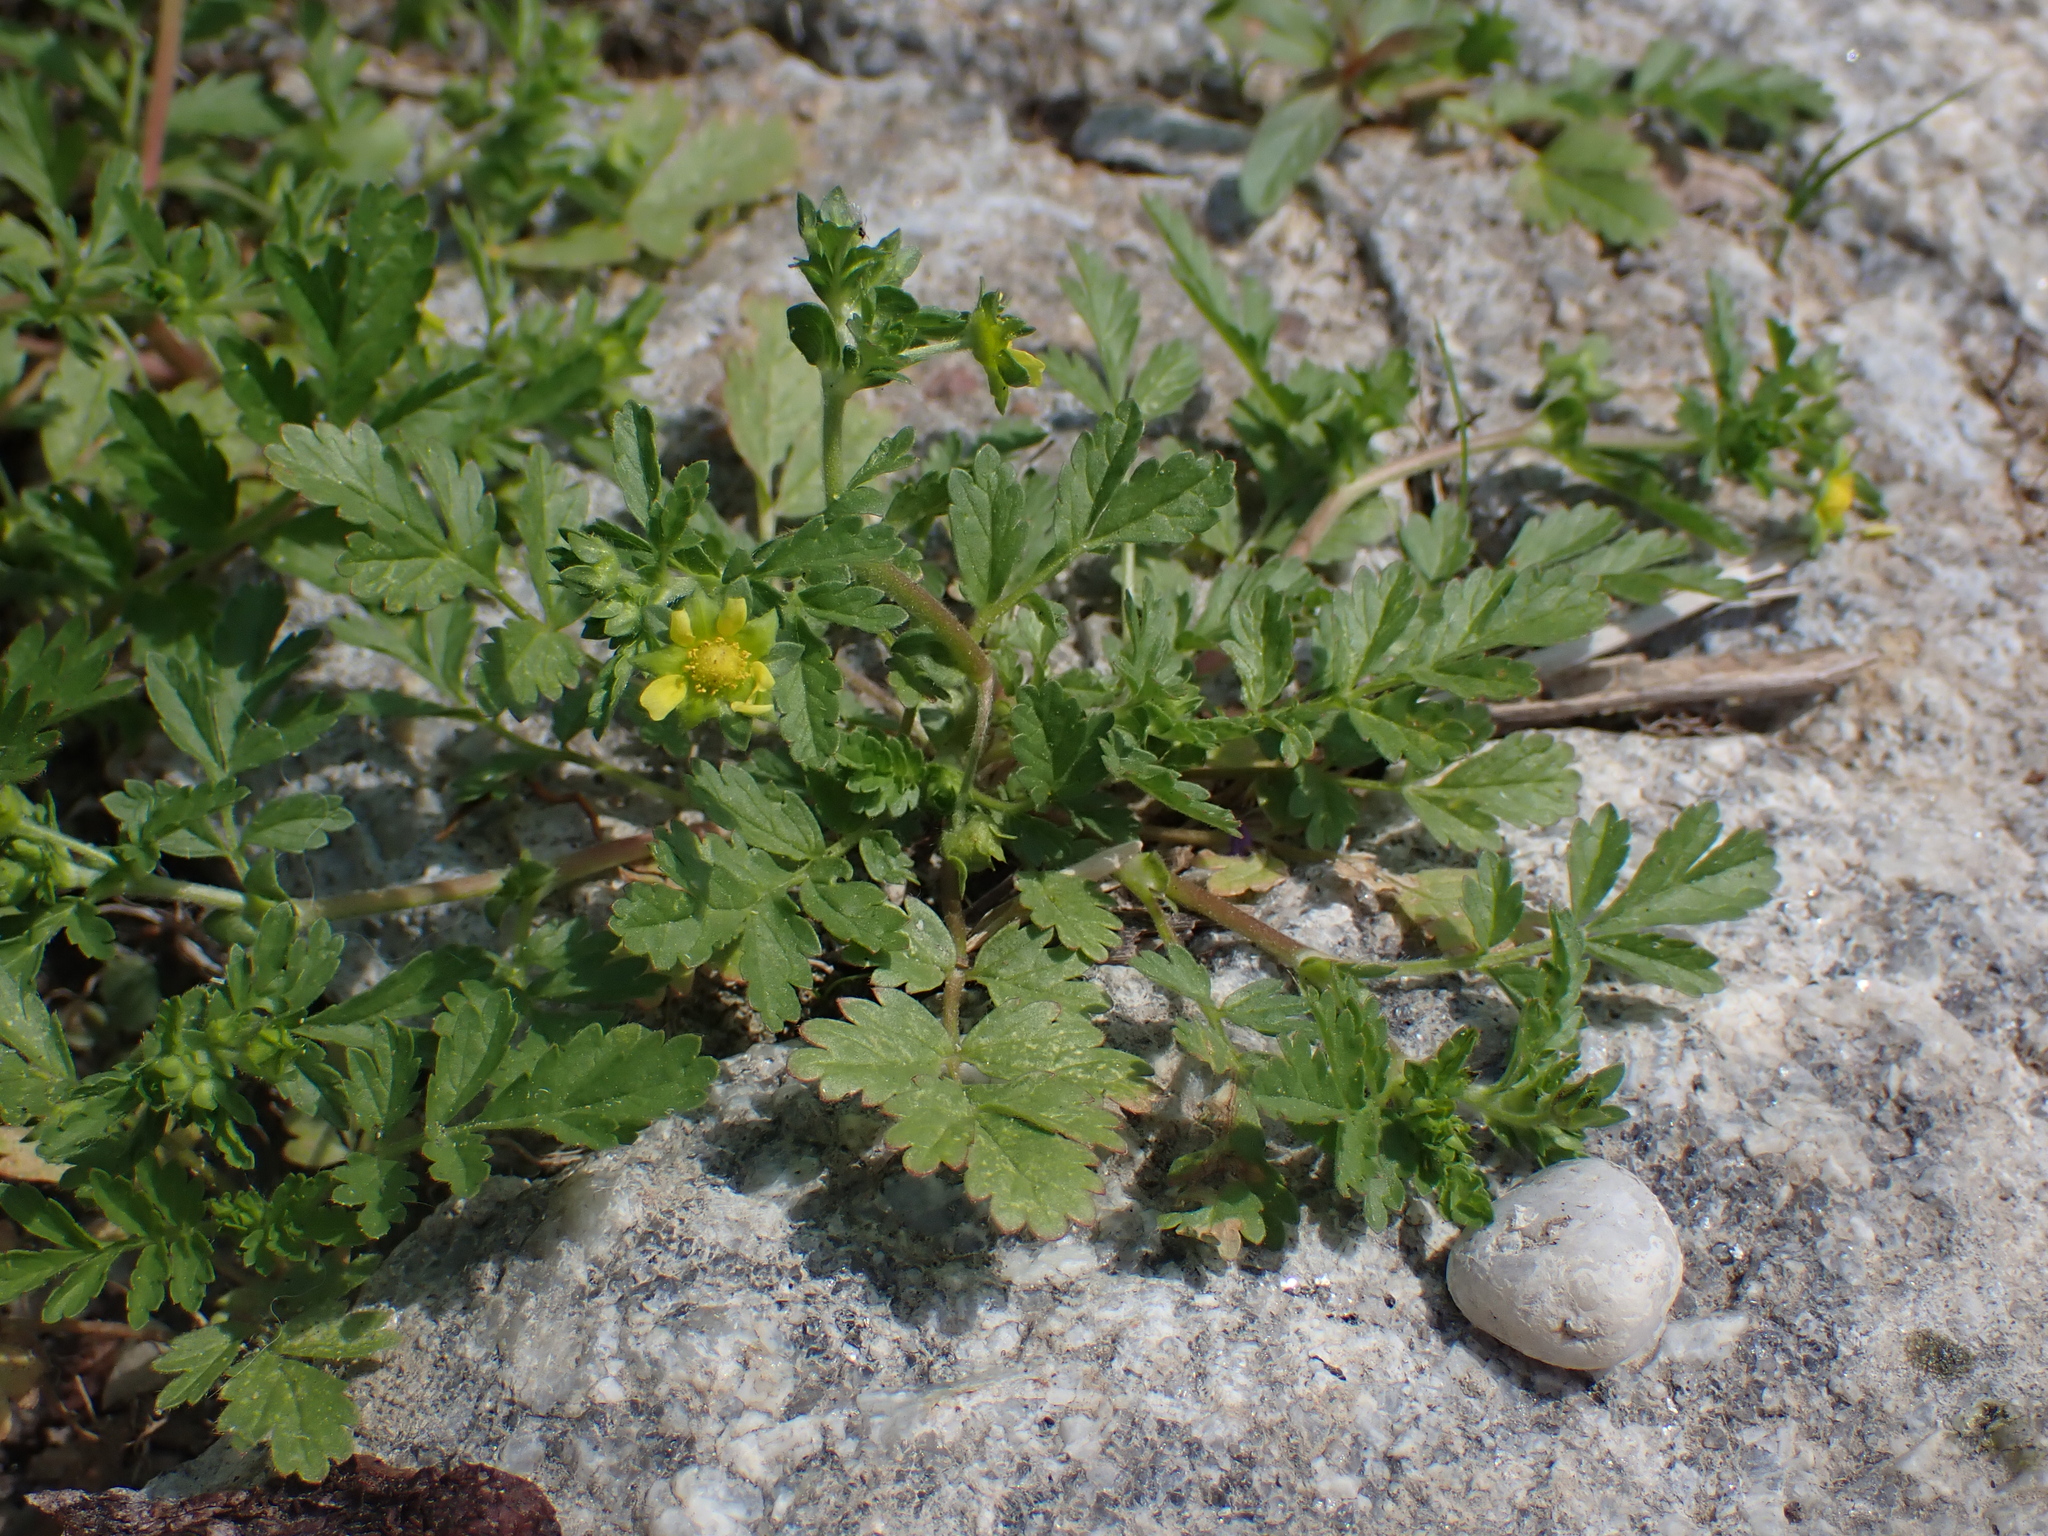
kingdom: Plantae
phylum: Tracheophyta
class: Magnoliopsida
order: Rosales
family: Rosaceae
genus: Potentilla
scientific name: Potentilla supina
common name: Prostrate cinquefoil
